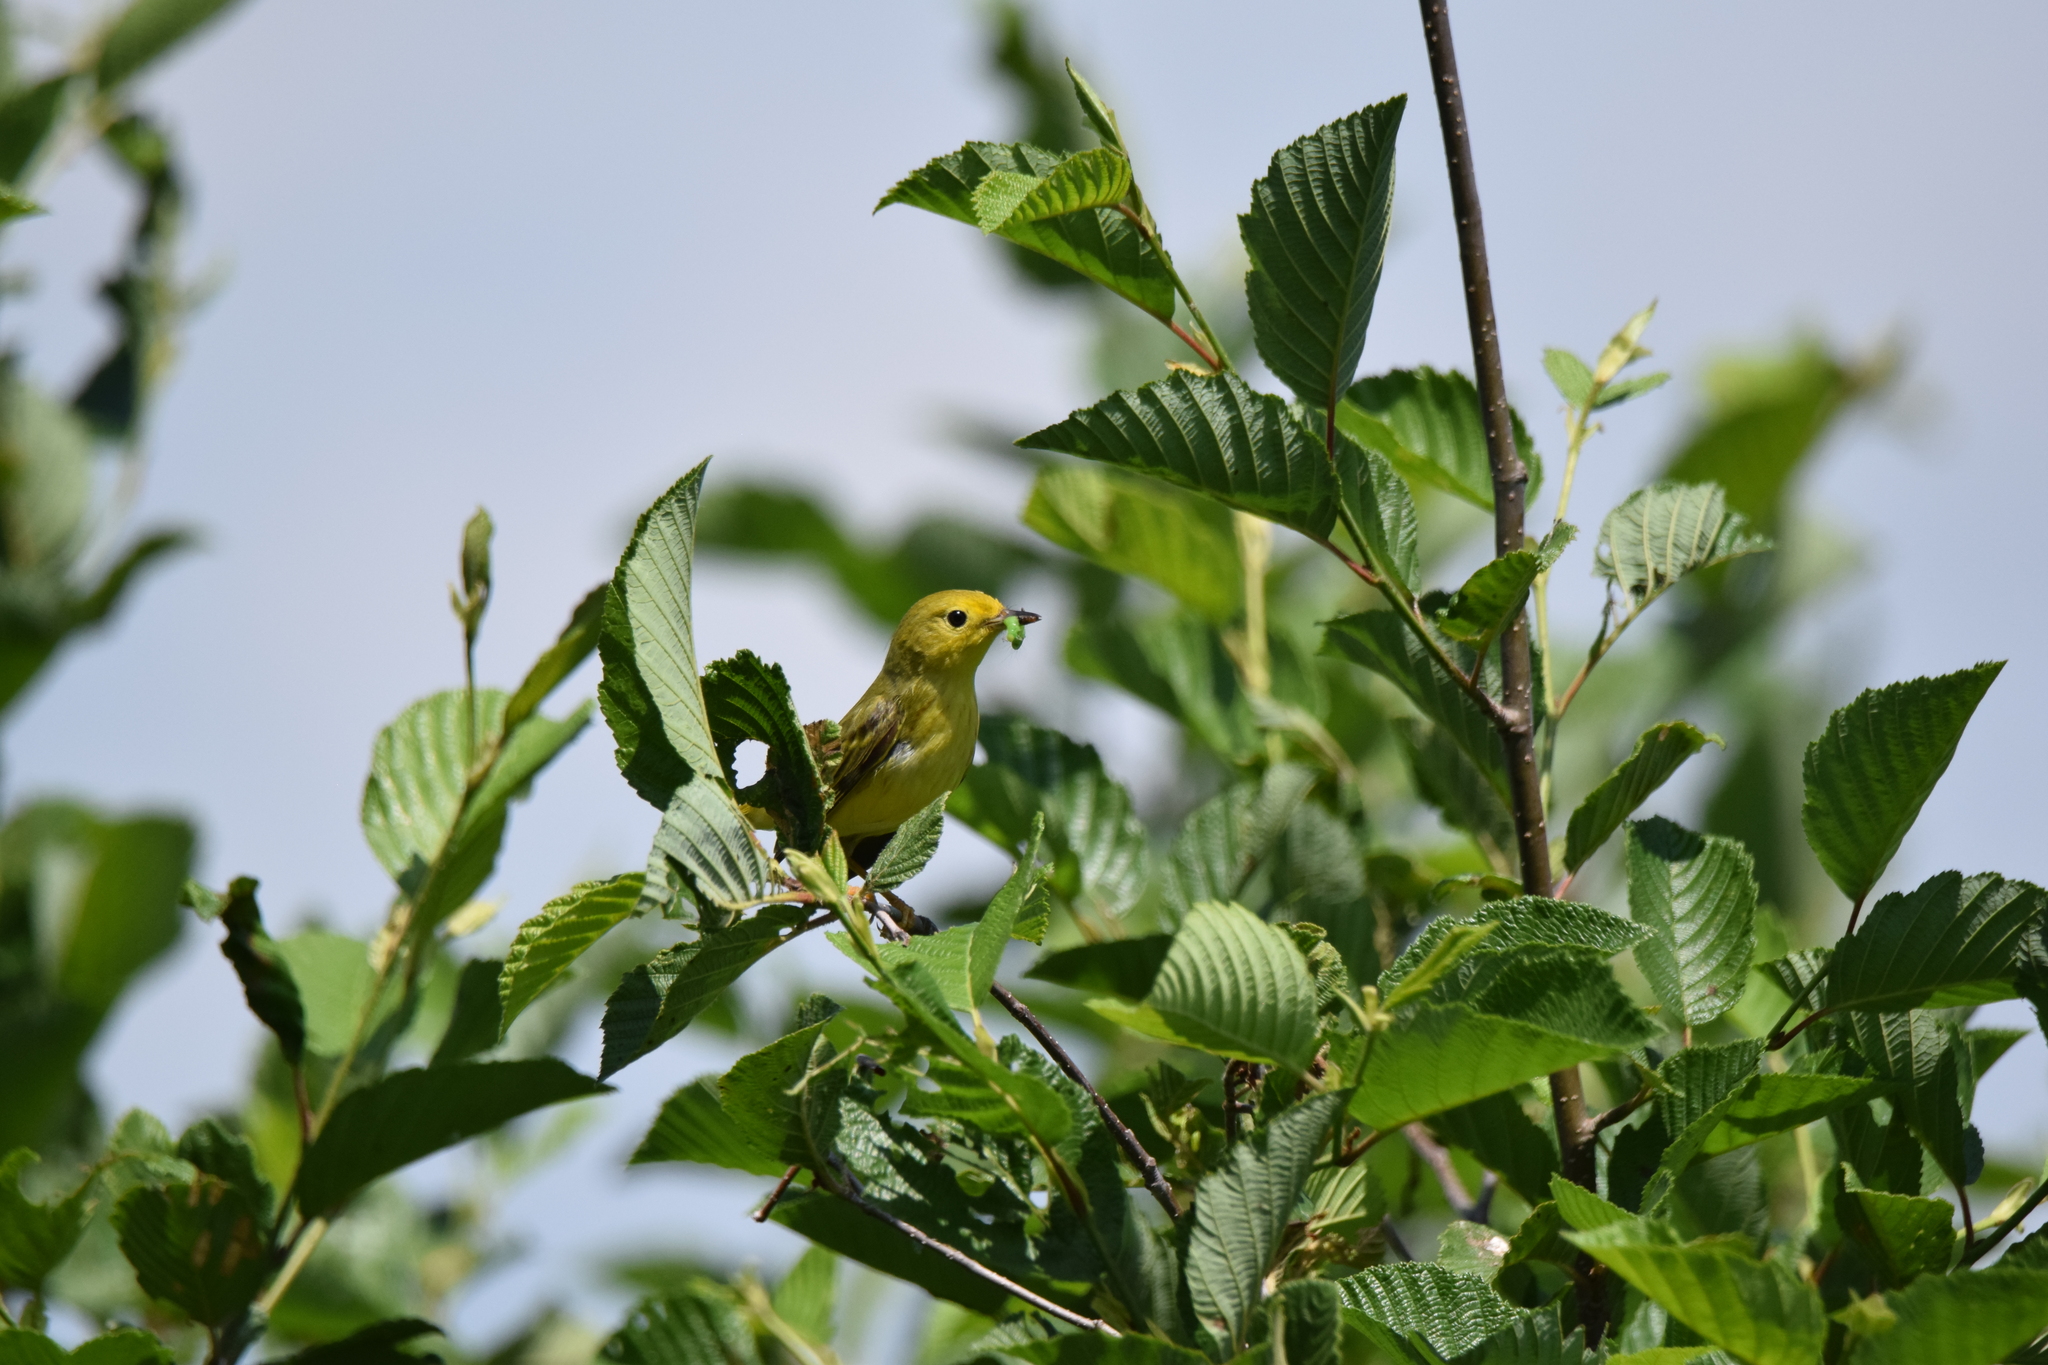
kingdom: Animalia
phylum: Chordata
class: Aves
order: Passeriformes
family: Parulidae
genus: Setophaga
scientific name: Setophaga petechia
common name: Yellow warbler
